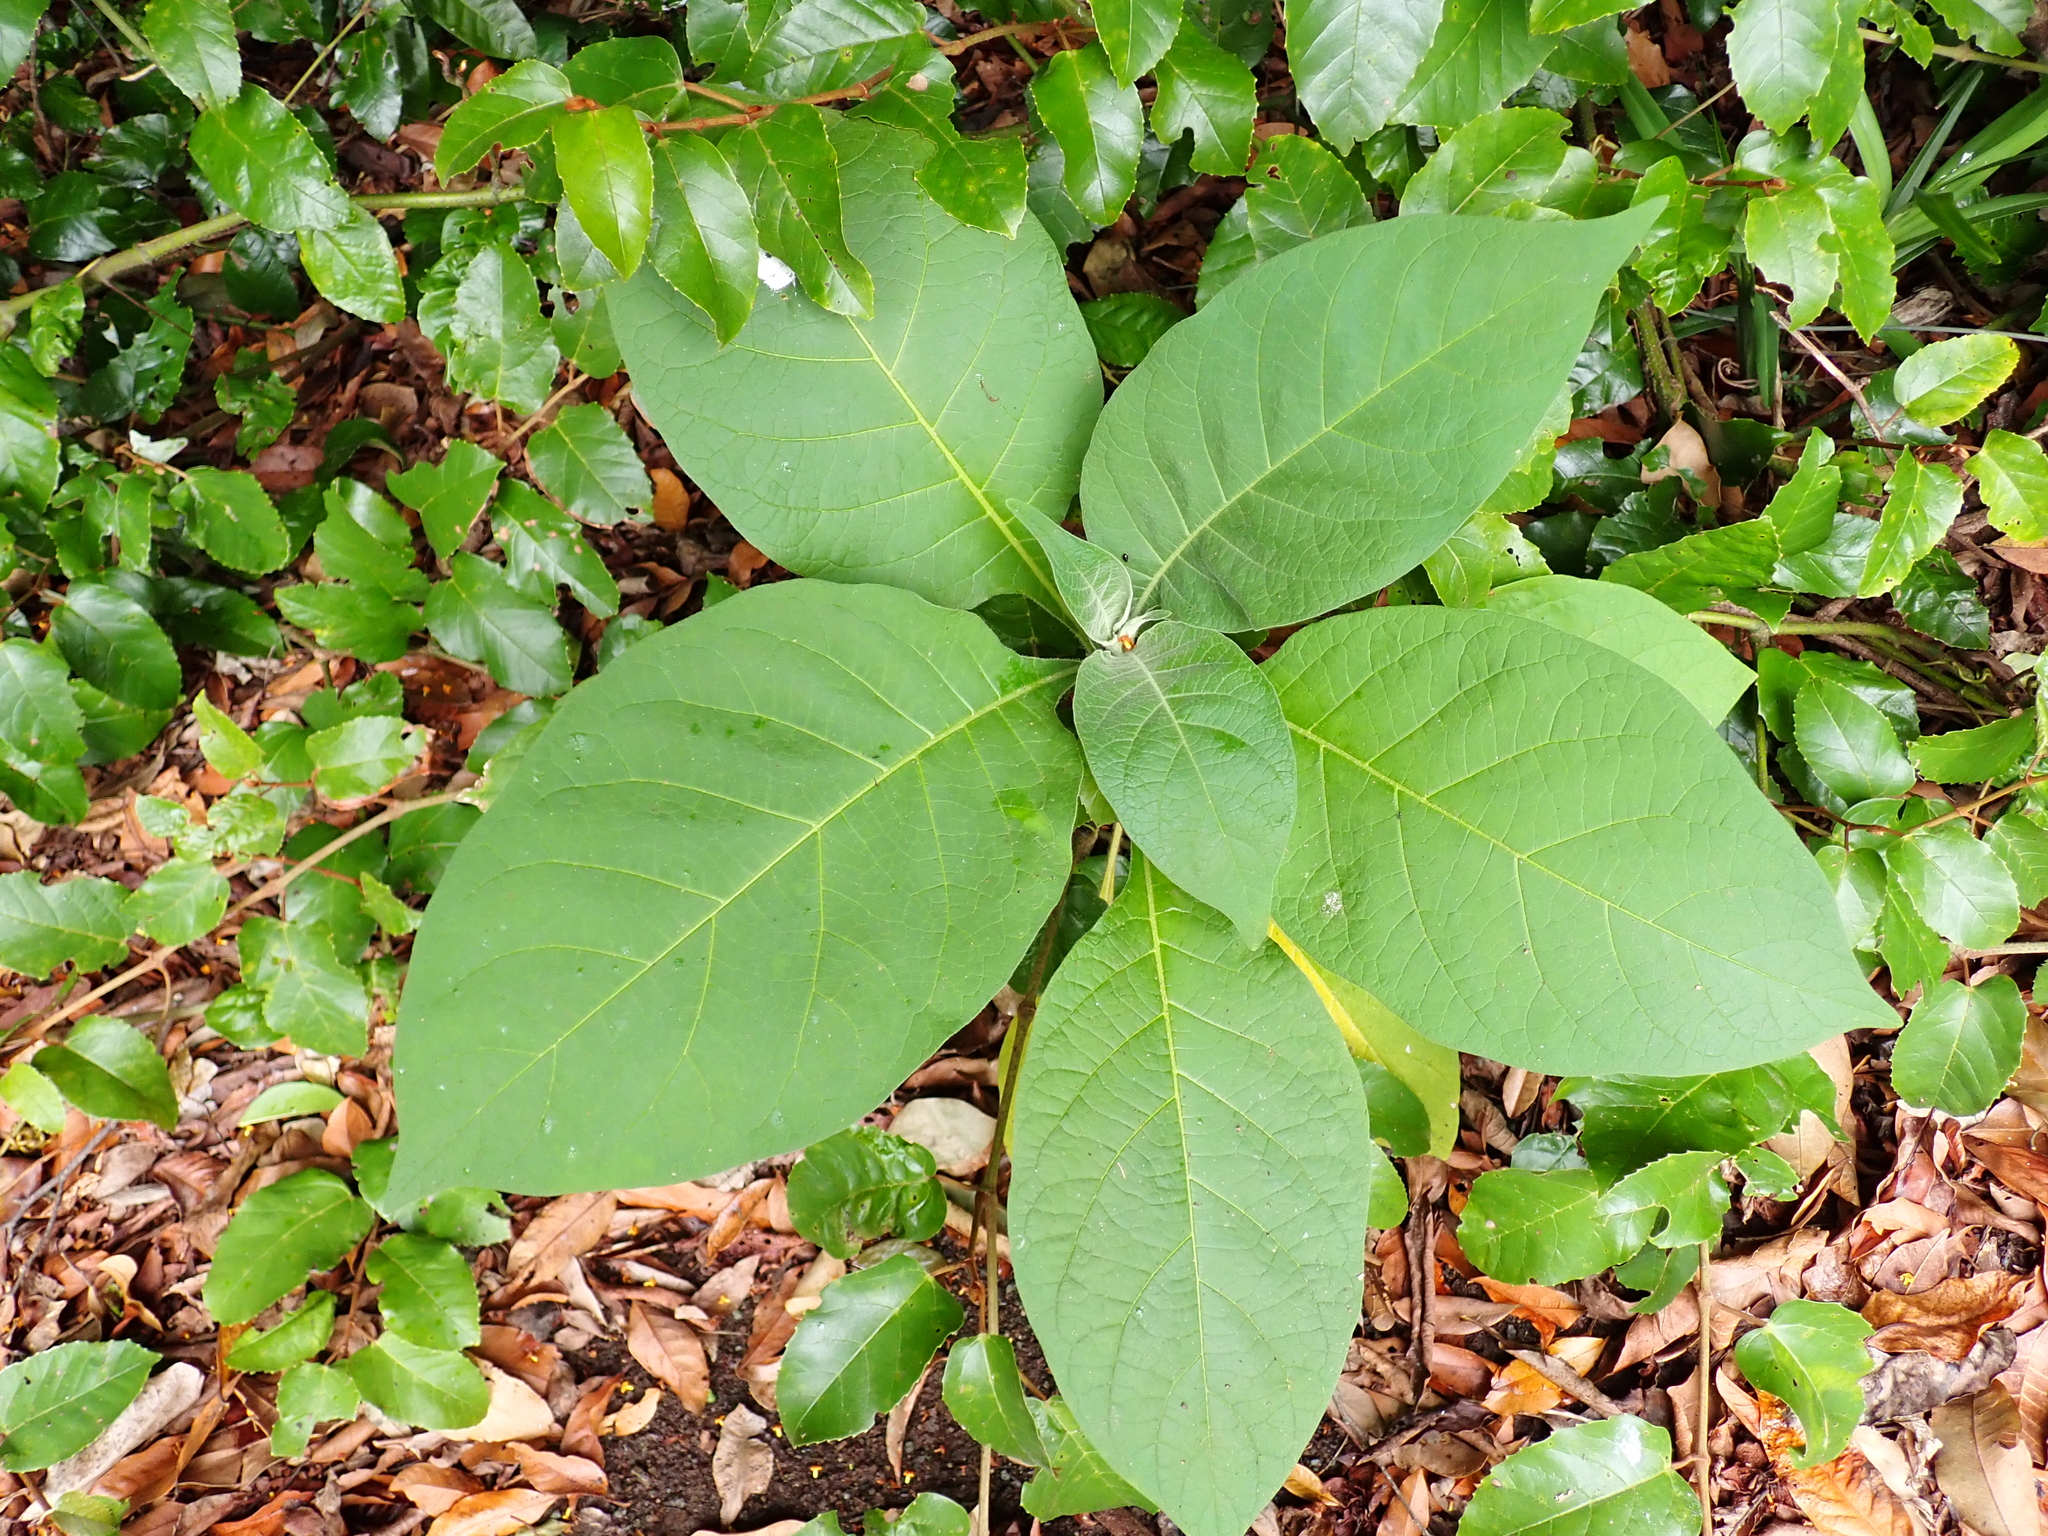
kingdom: Plantae
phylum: Tracheophyta
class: Magnoliopsida
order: Solanales
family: Solanaceae
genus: Solanum
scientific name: Solanum mauritianum
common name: Earleaf nightshade
